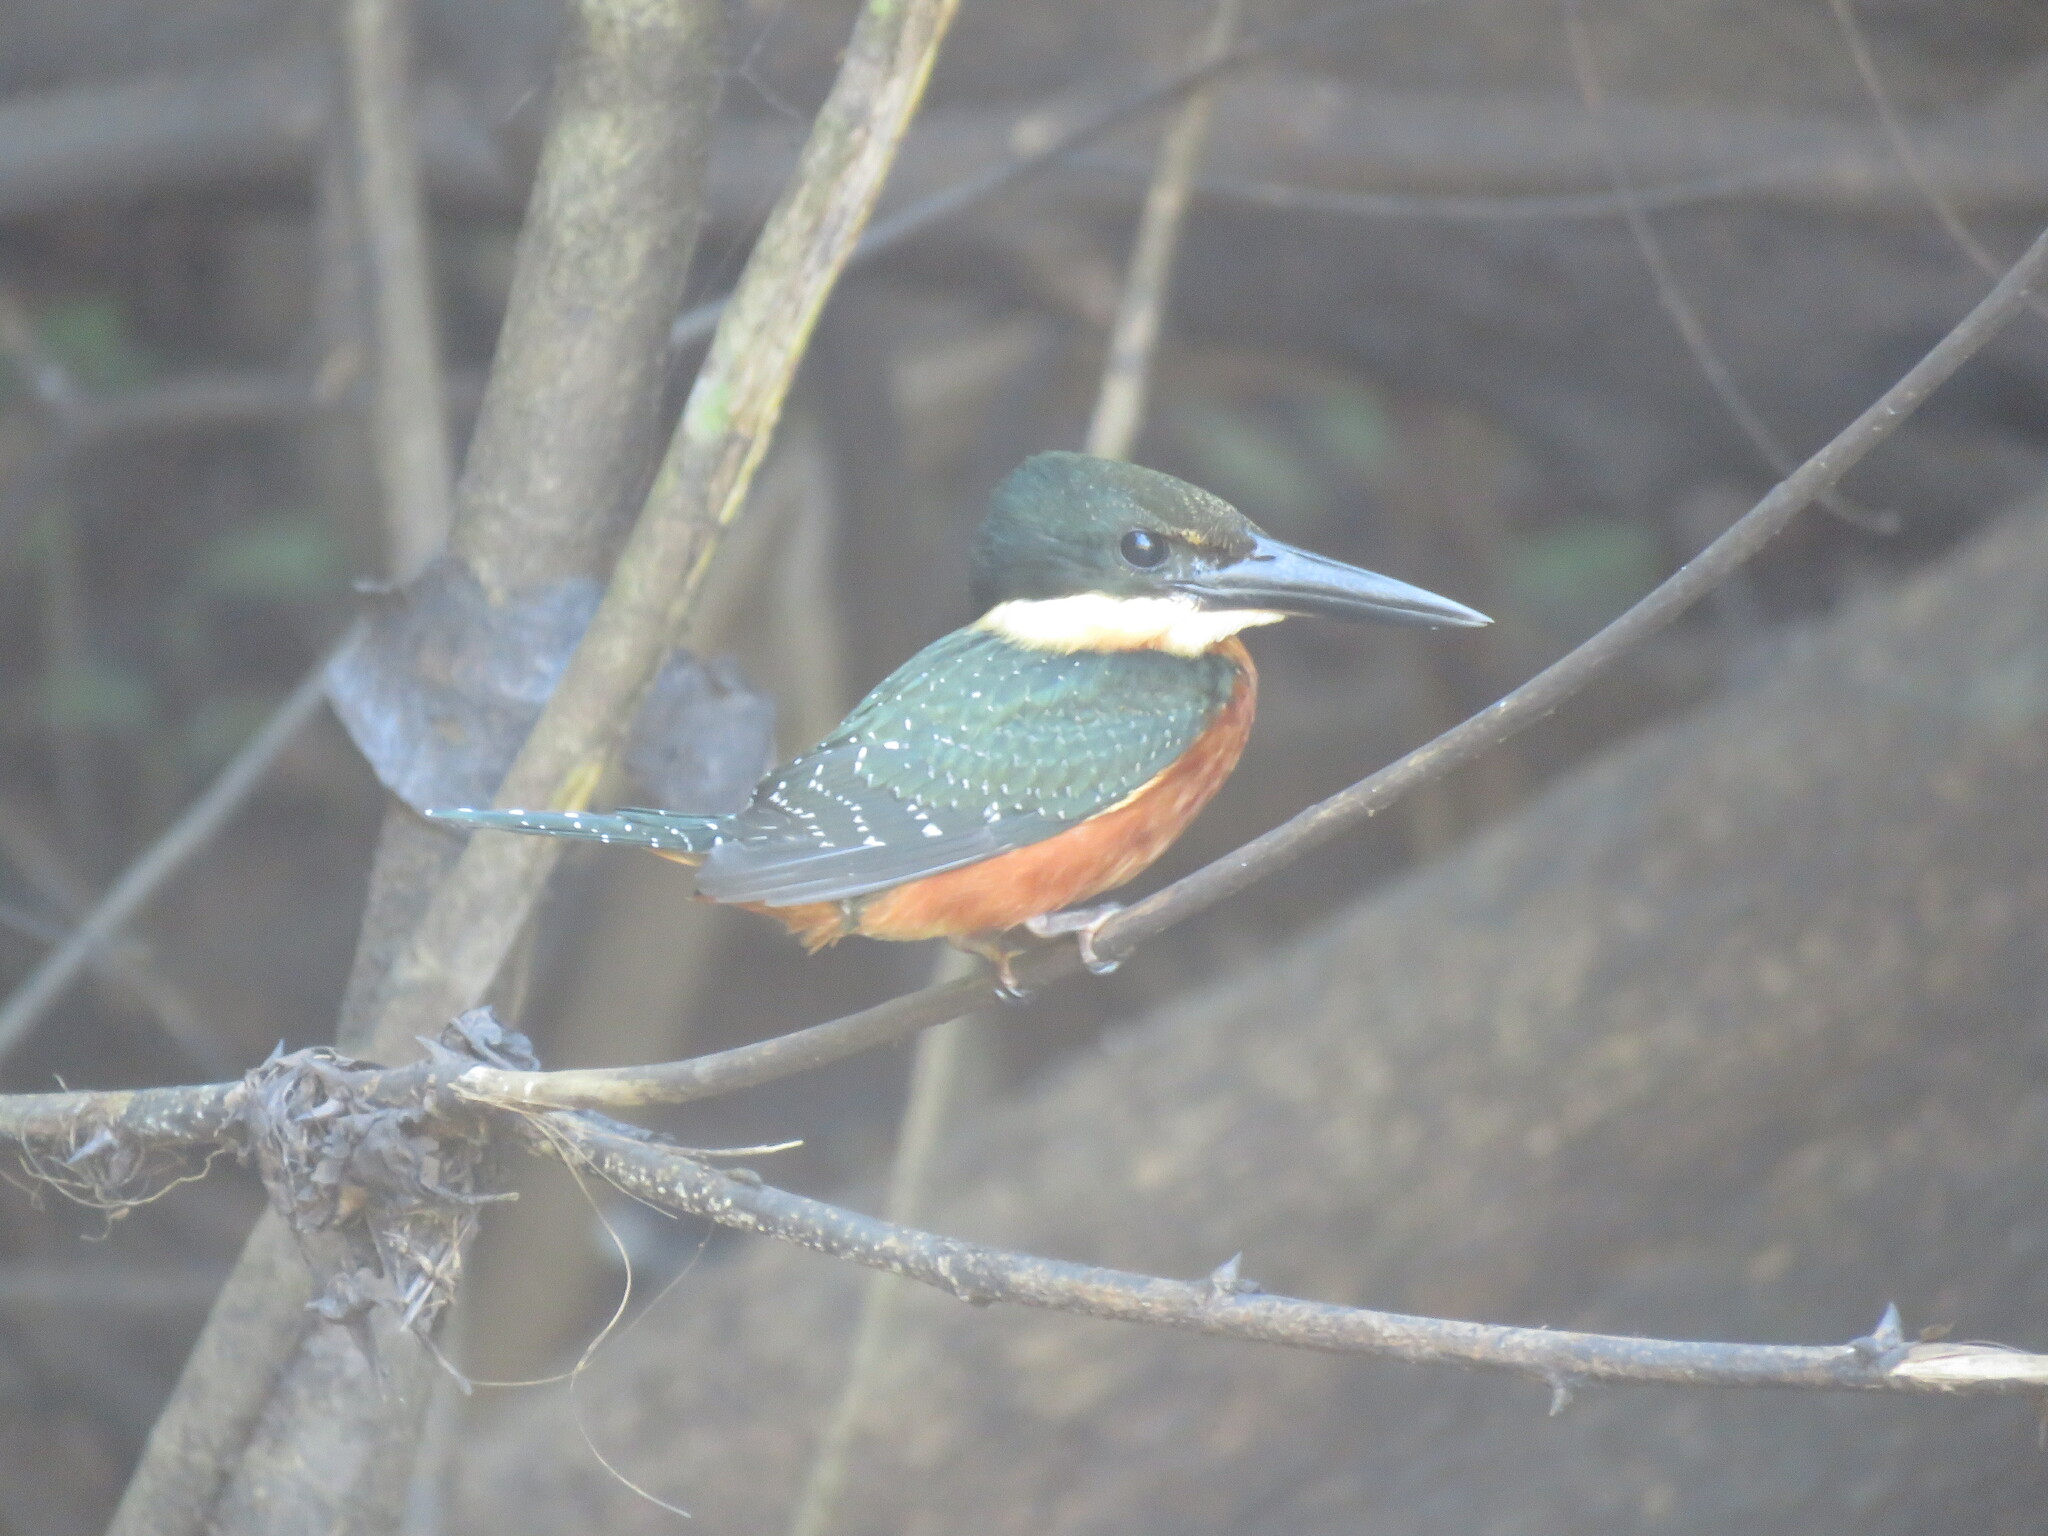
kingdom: Animalia
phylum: Chordata
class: Aves
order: Coraciiformes
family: Alcedinidae
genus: Chloroceryle
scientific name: Chloroceryle inda
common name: Green-and-rufous kingfisher
